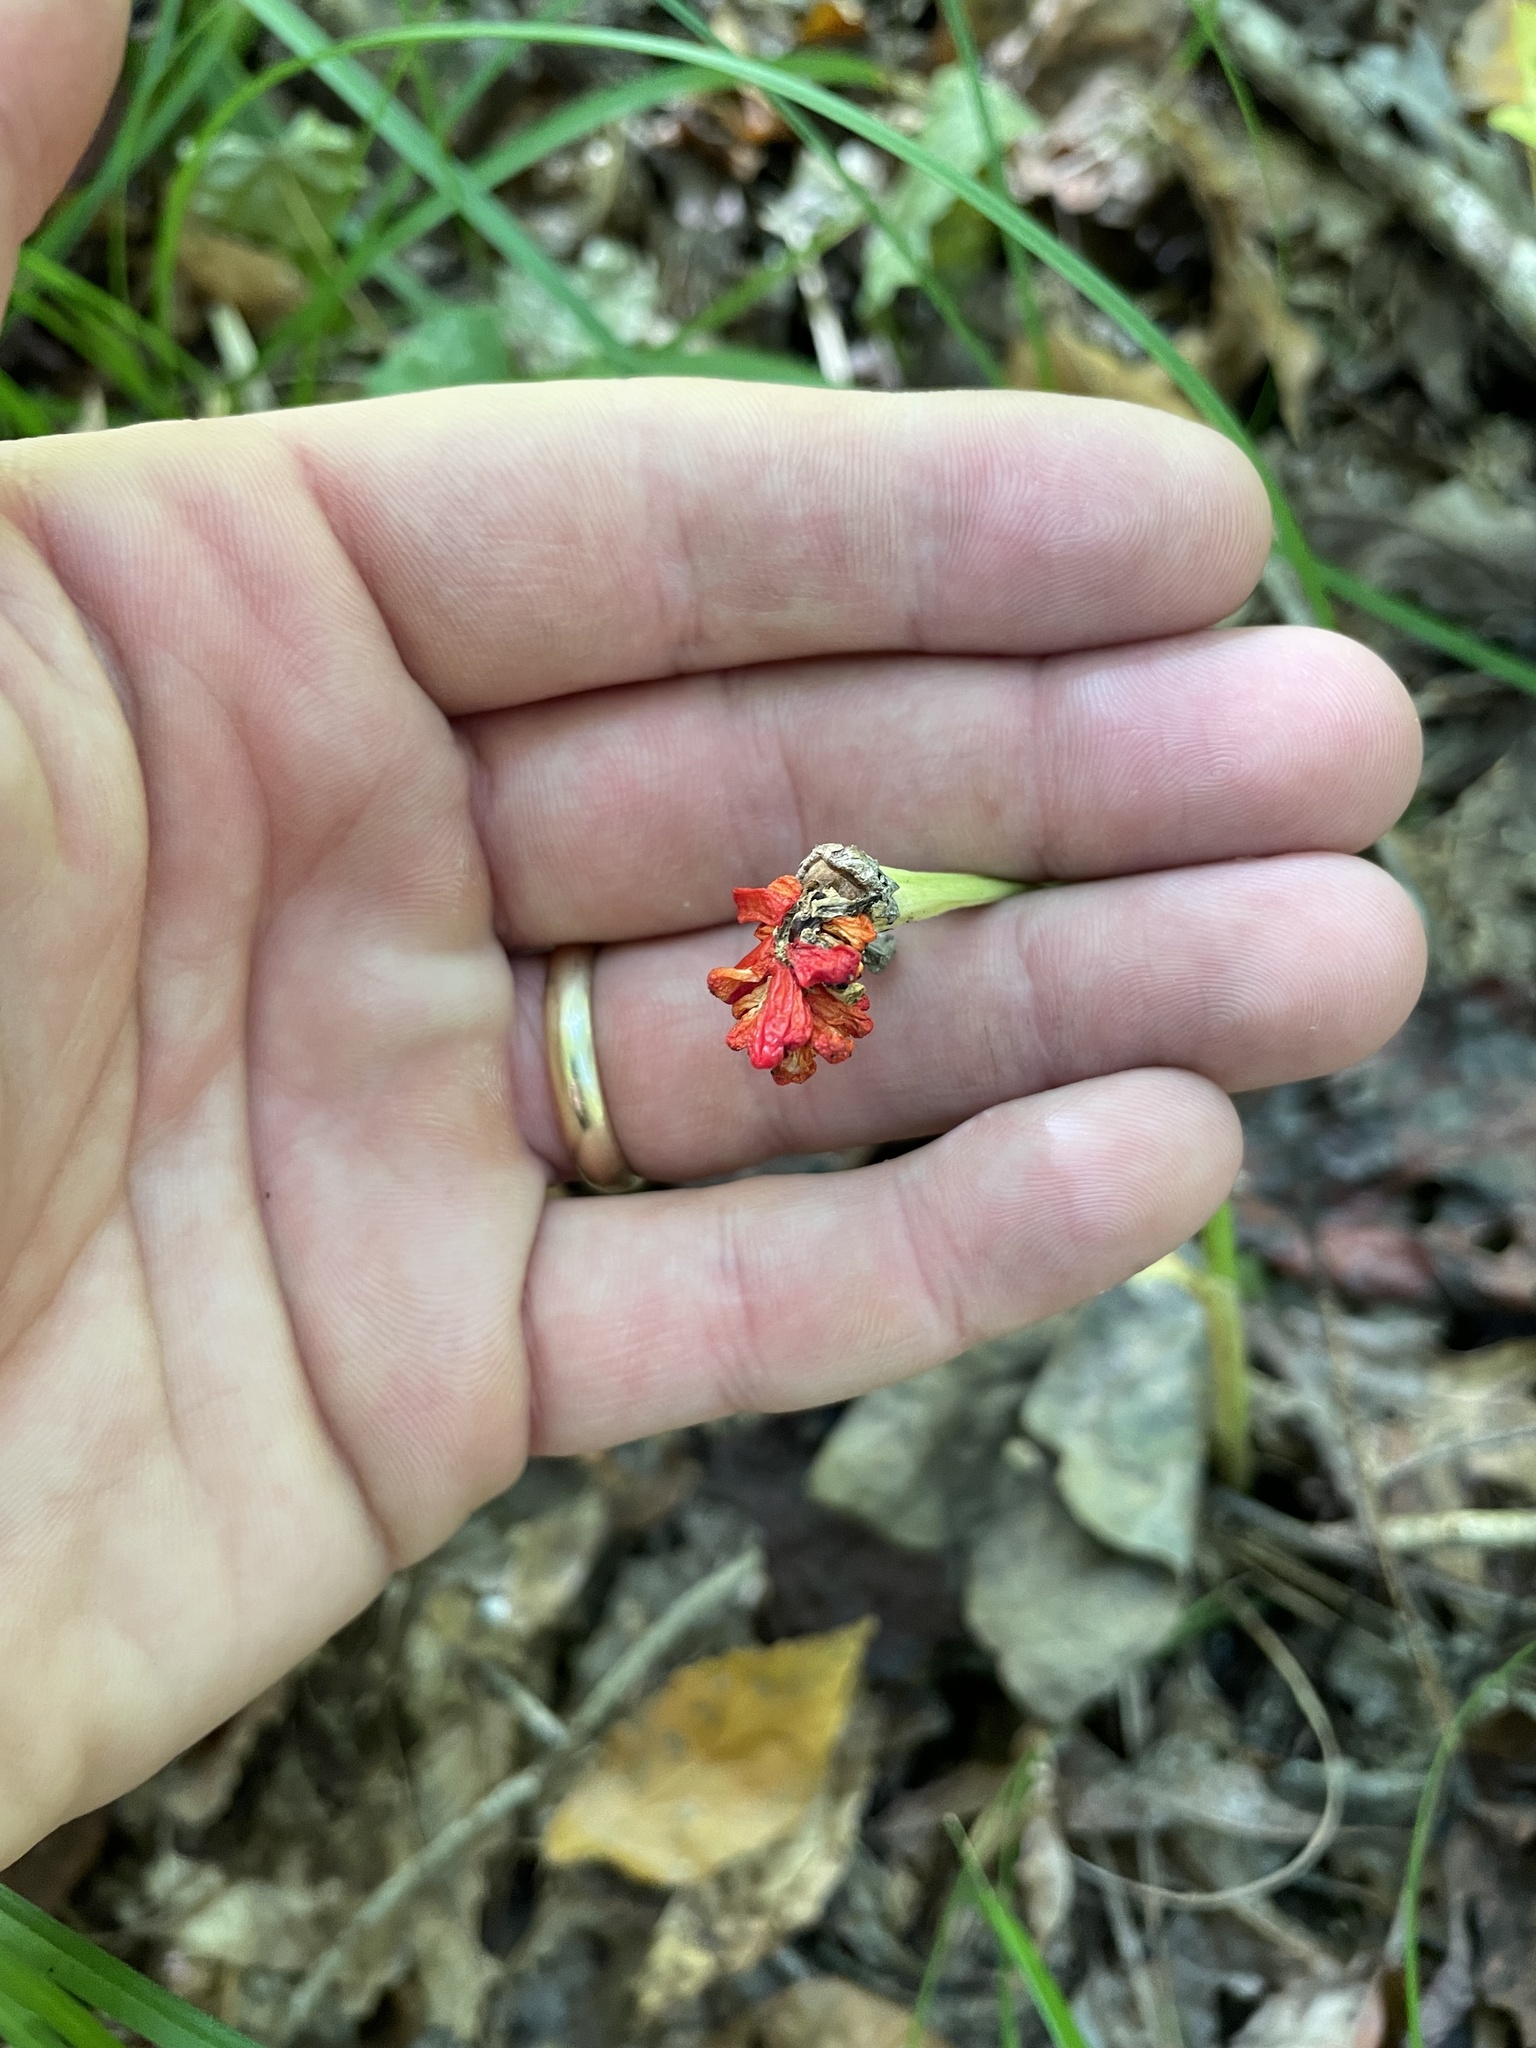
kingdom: Plantae
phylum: Tracheophyta
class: Liliopsida
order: Alismatales
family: Araceae
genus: Arisaema
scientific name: Arisaema quinatum
